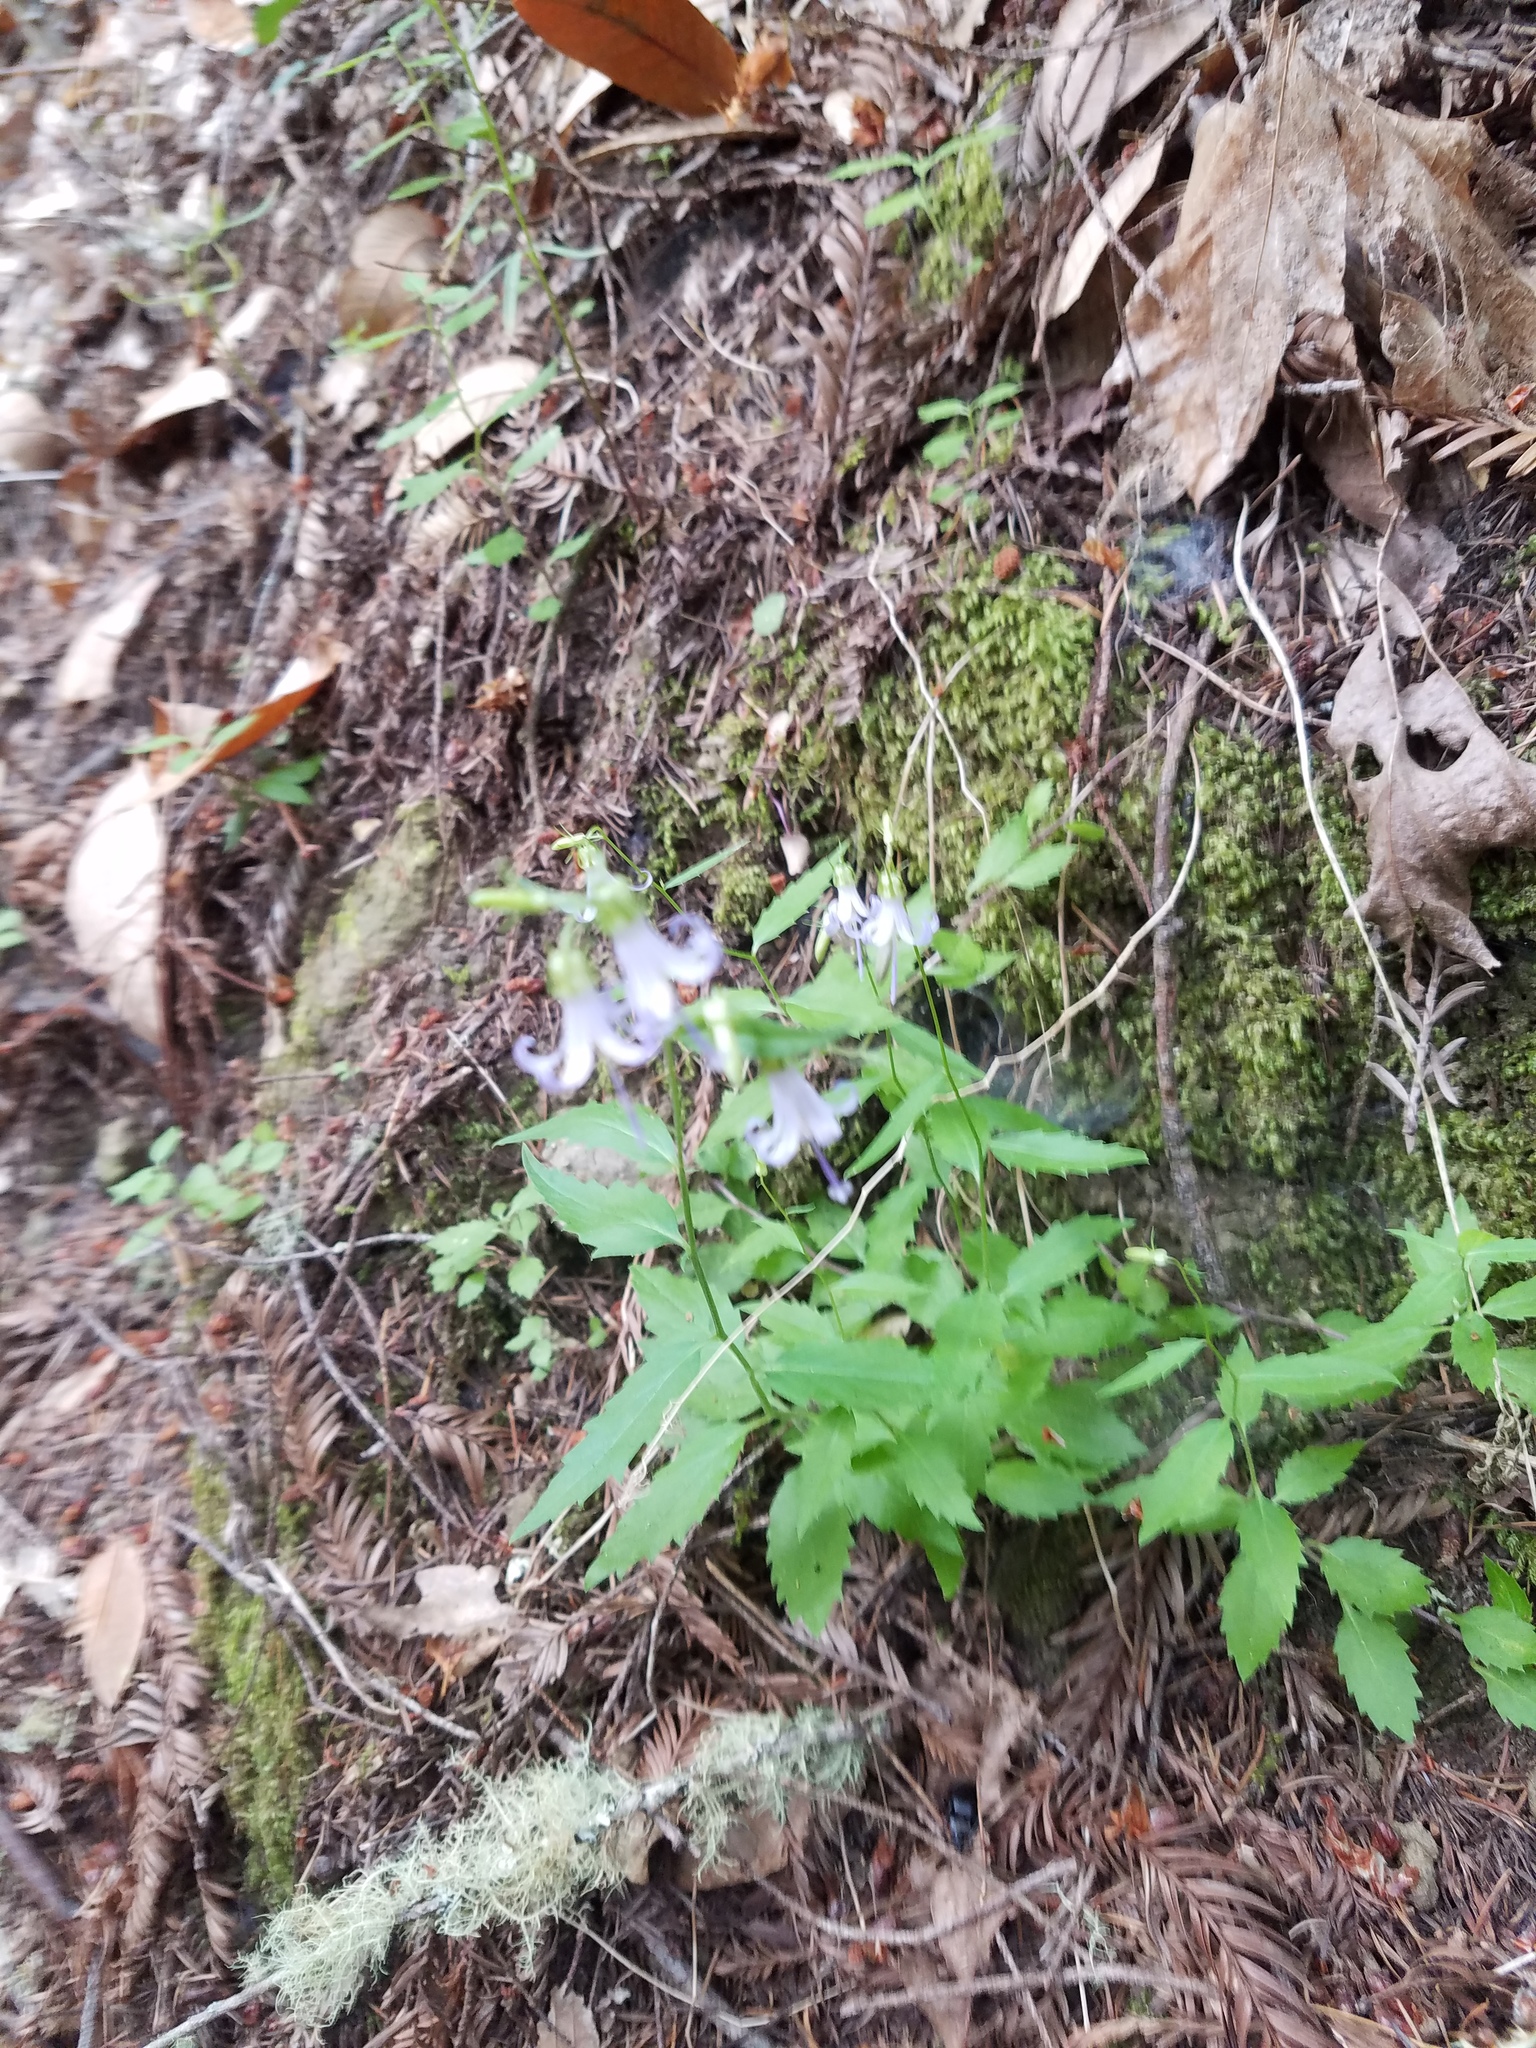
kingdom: Plantae
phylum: Tracheophyta
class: Magnoliopsida
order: Asterales
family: Campanulaceae
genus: Smithiastrum
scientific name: Smithiastrum prenanthoides
